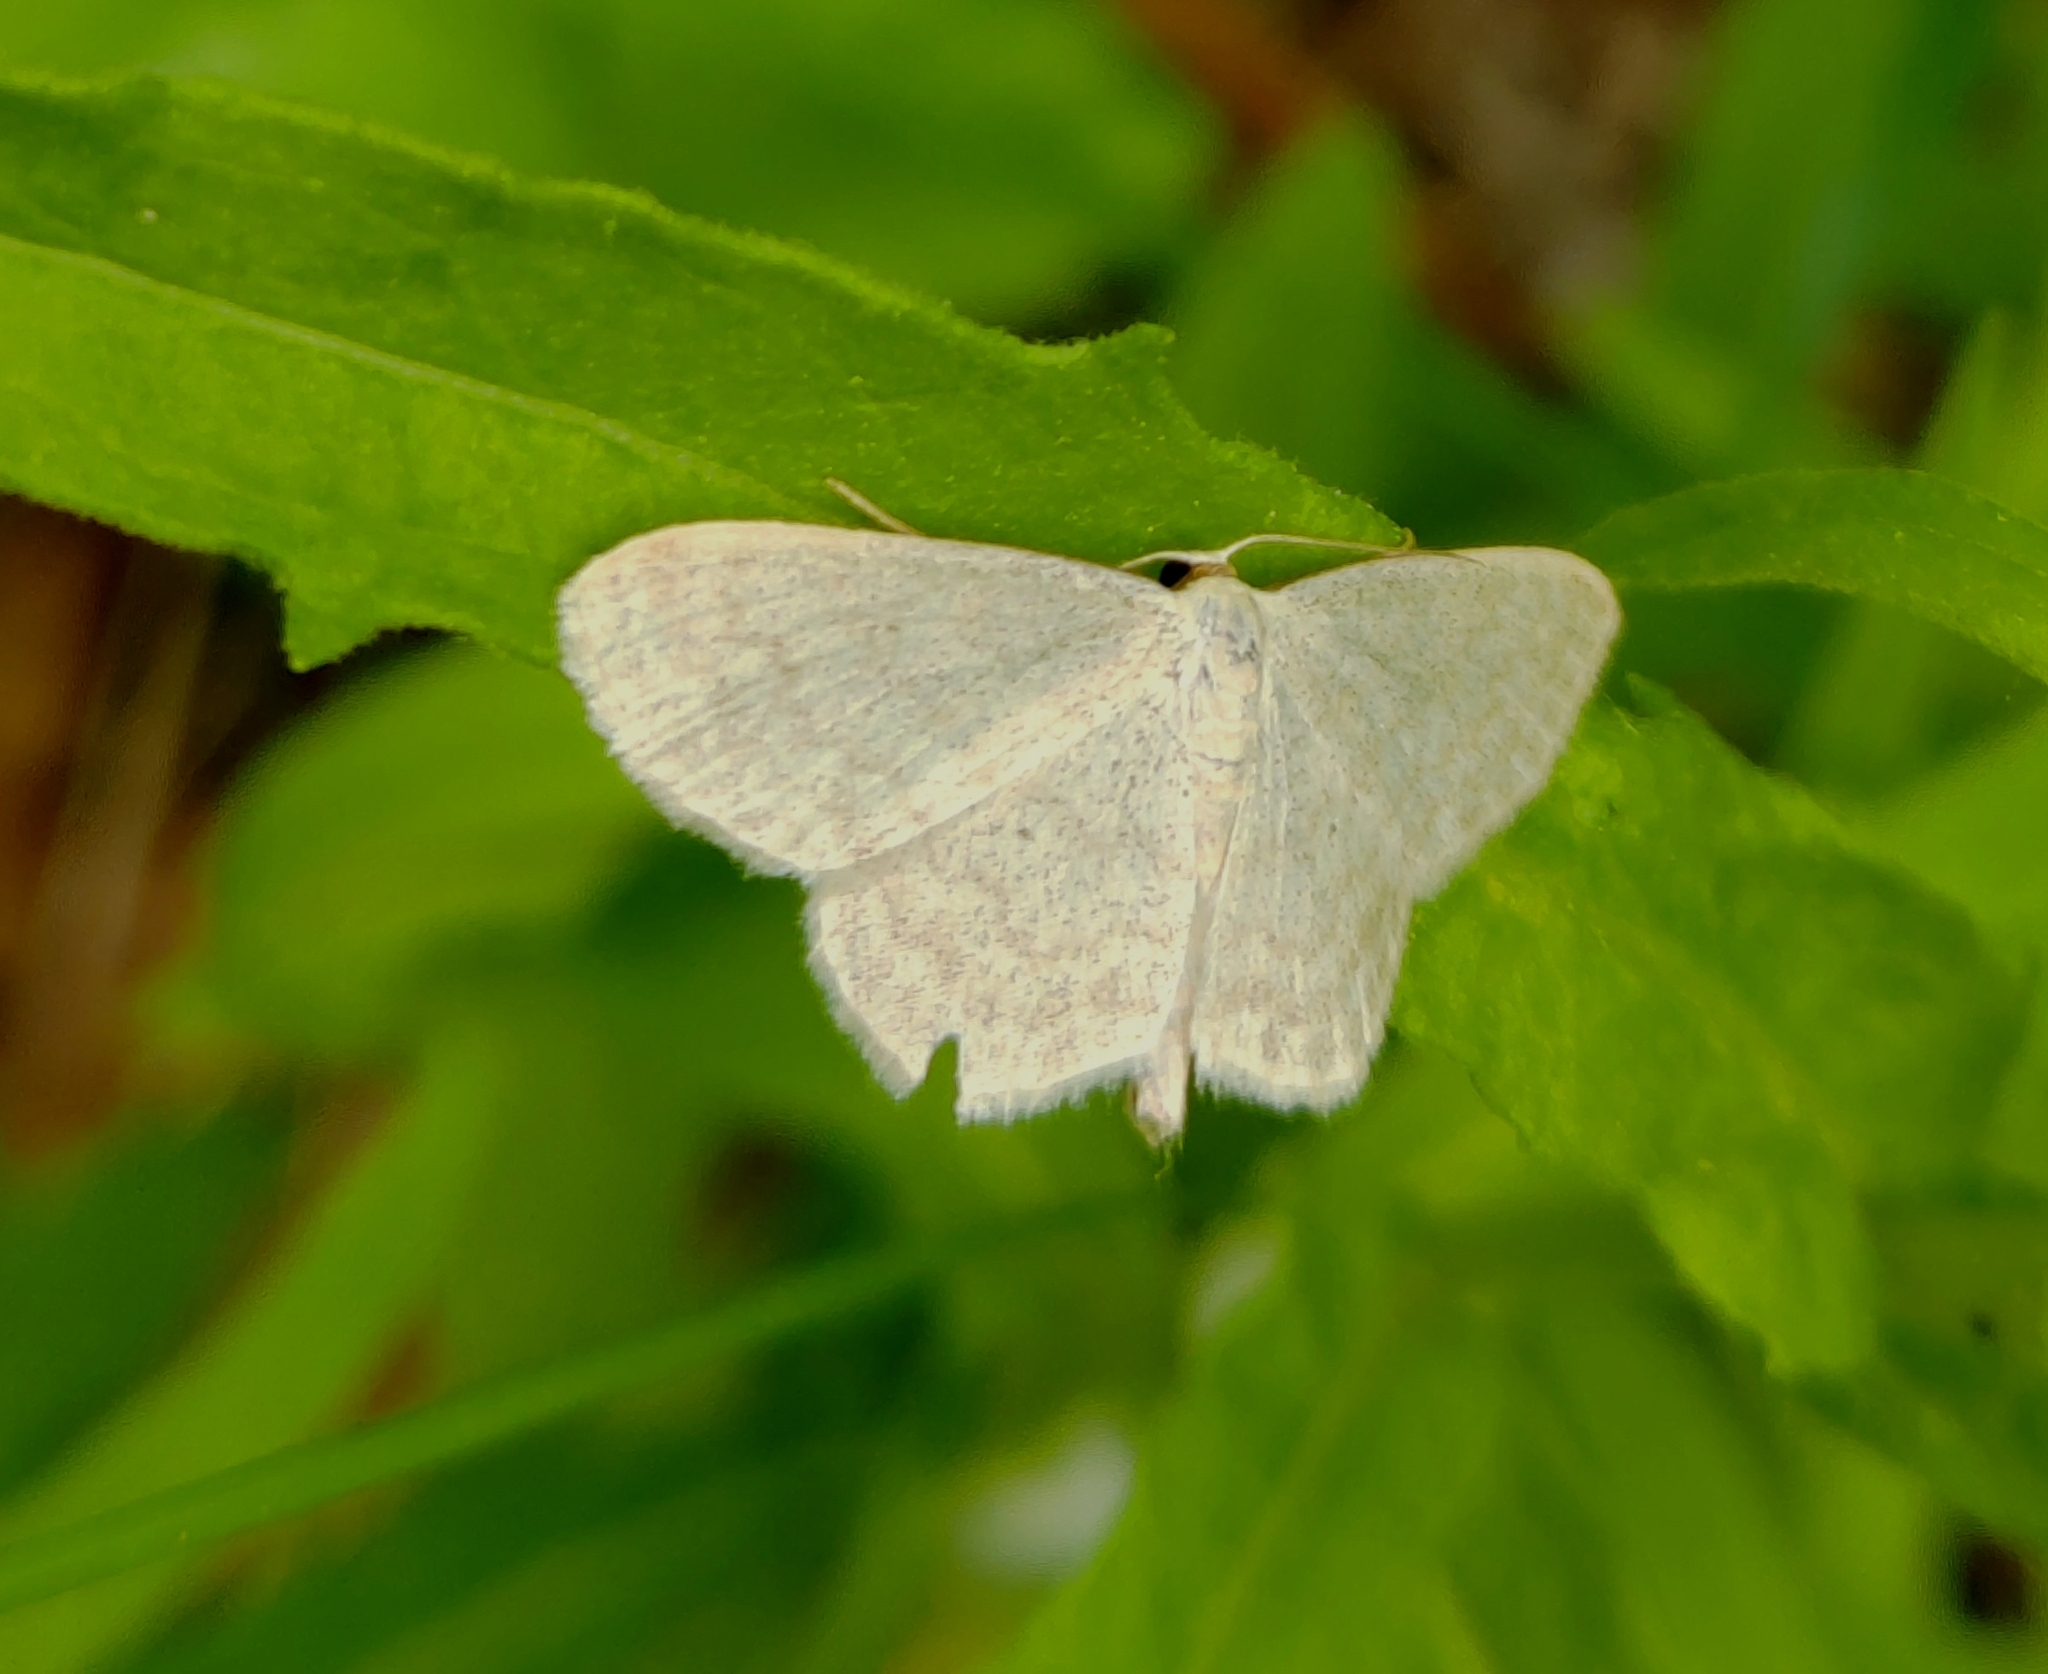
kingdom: Animalia
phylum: Arthropoda
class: Insecta
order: Lepidoptera
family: Geometridae
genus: Scopula
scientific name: Scopula floslactata
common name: Cream wave
